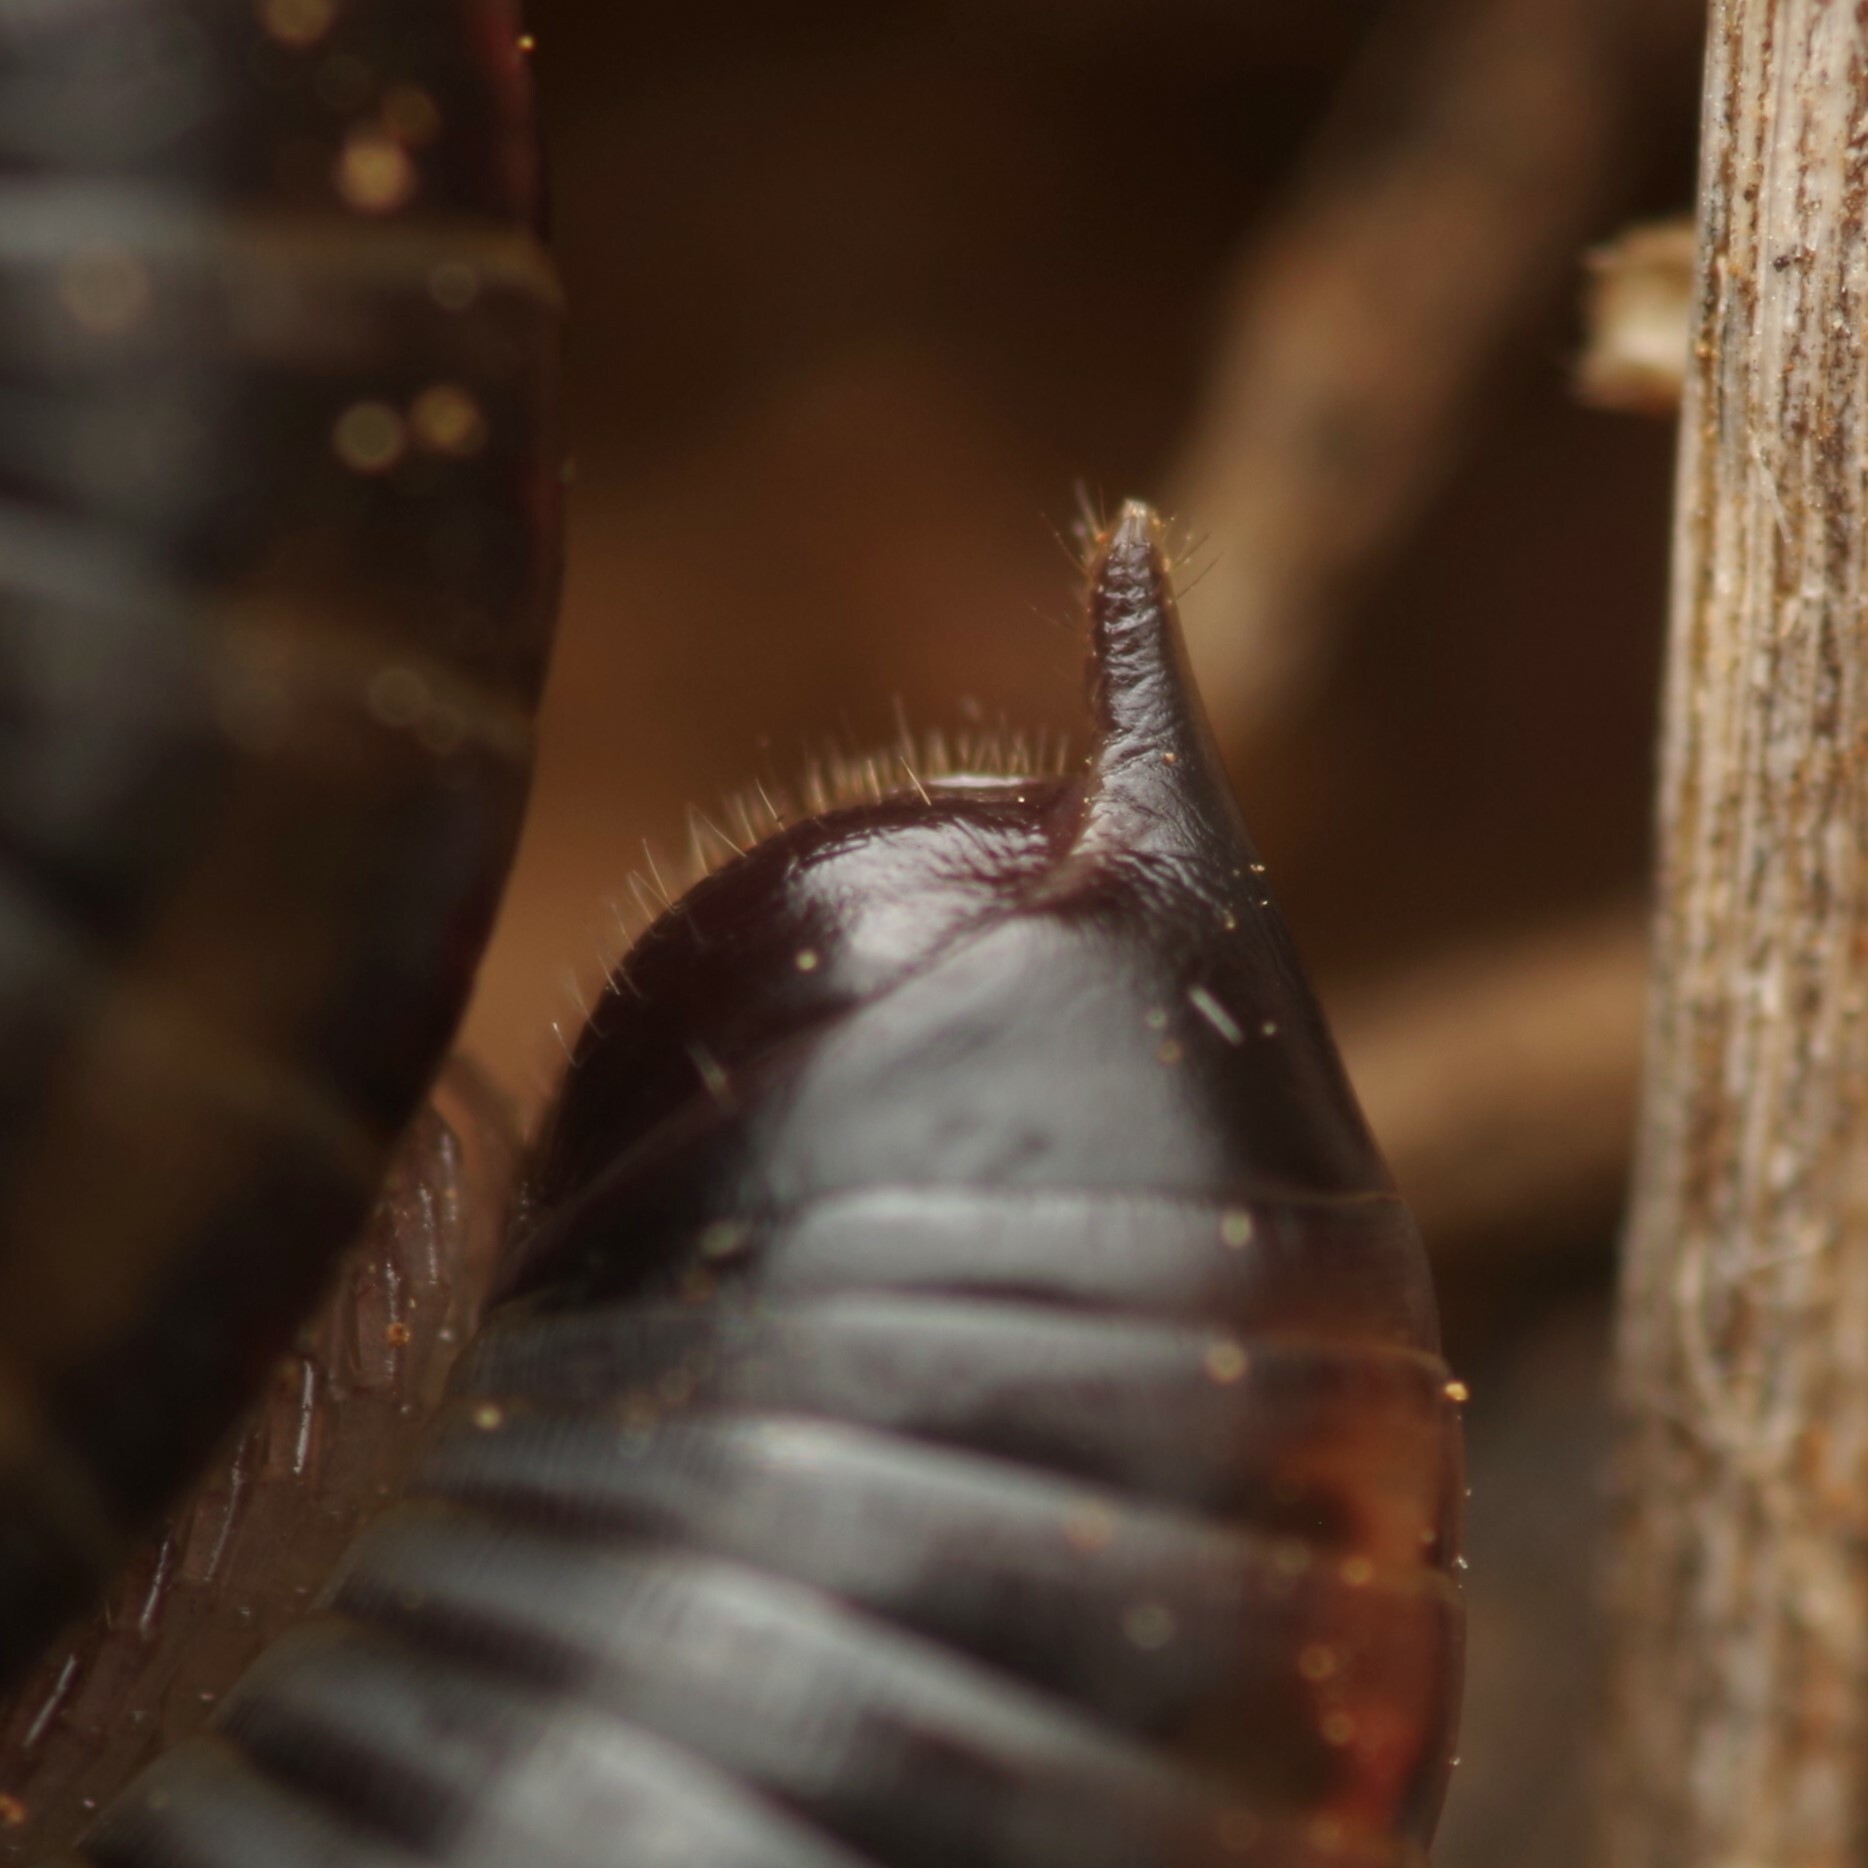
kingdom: Animalia
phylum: Arthropoda
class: Diplopoda
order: Julida
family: Julidae
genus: Ommatoiulus
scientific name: Ommatoiulus sabulosus
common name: Striped millipede
